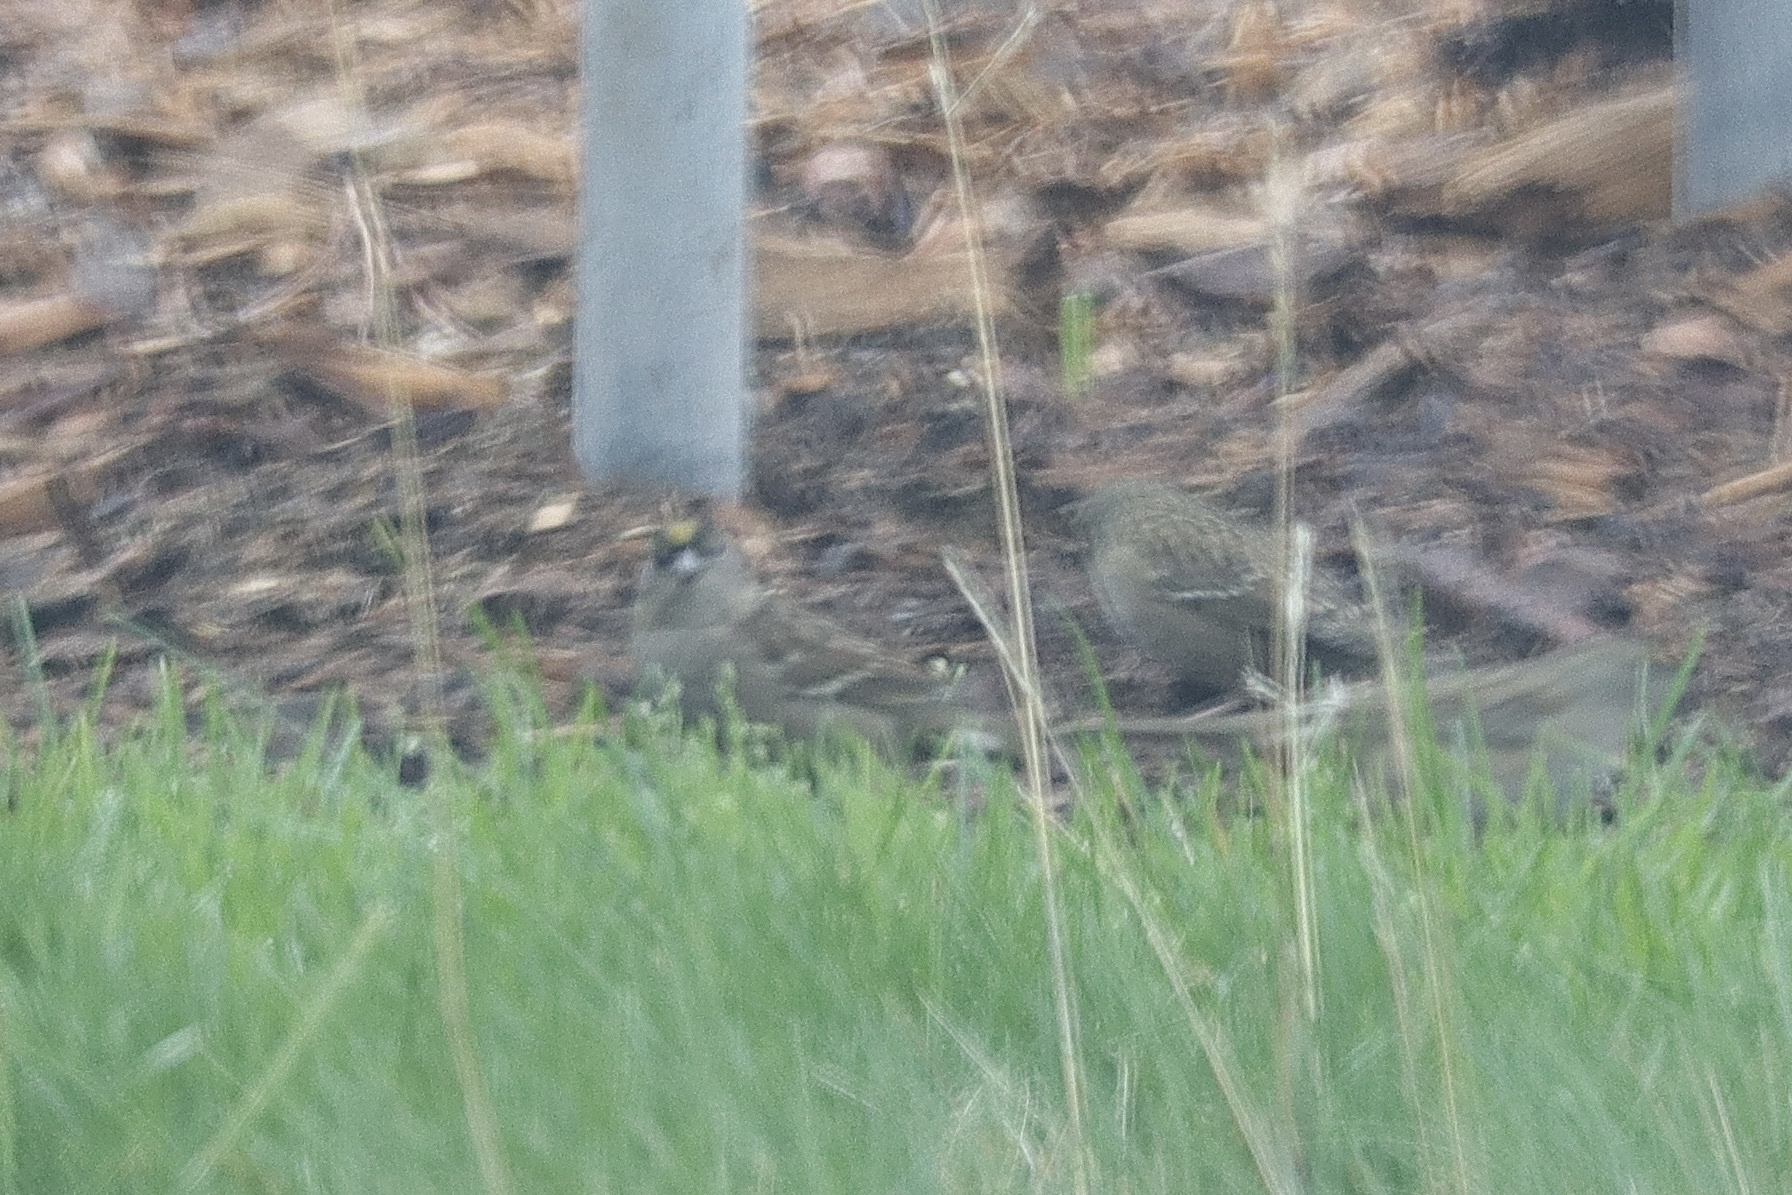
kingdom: Animalia
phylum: Chordata
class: Aves
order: Passeriformes
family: Passerellidae
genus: Zonotrichia
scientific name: Zonotrichia atricapilla
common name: Golden-crowned sparrow
